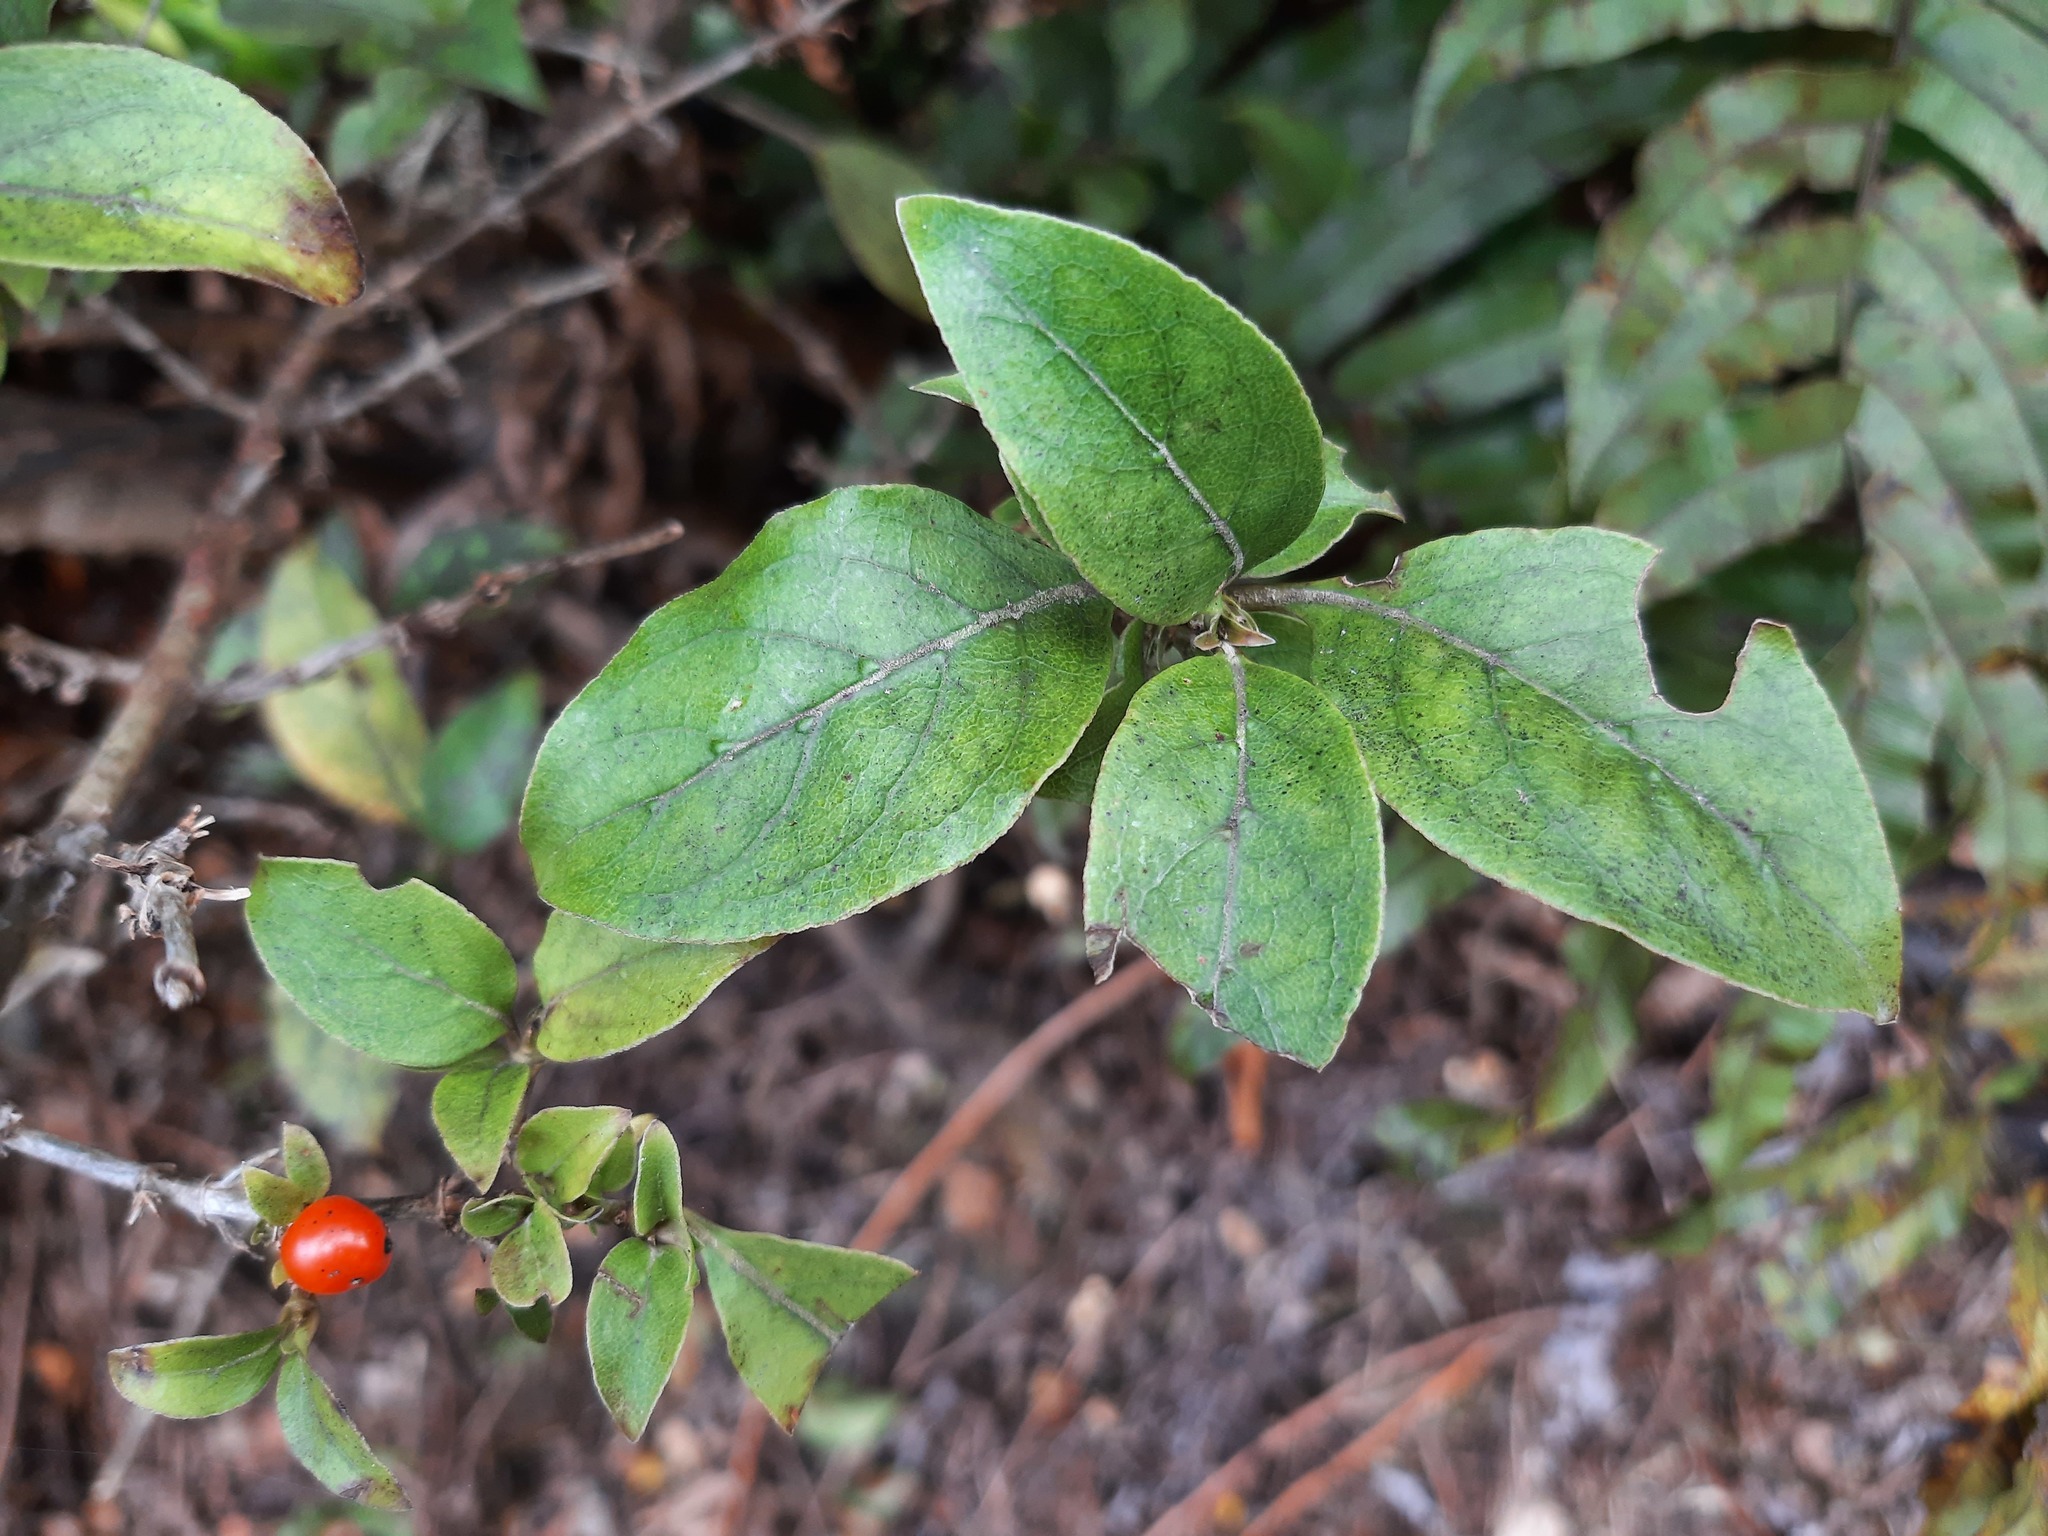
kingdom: Plantae
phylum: Tracheophyta
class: Magnoliopsida
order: Gentianales
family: Rubiaceae
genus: Coprosma
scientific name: Coprosma tenuifolia
